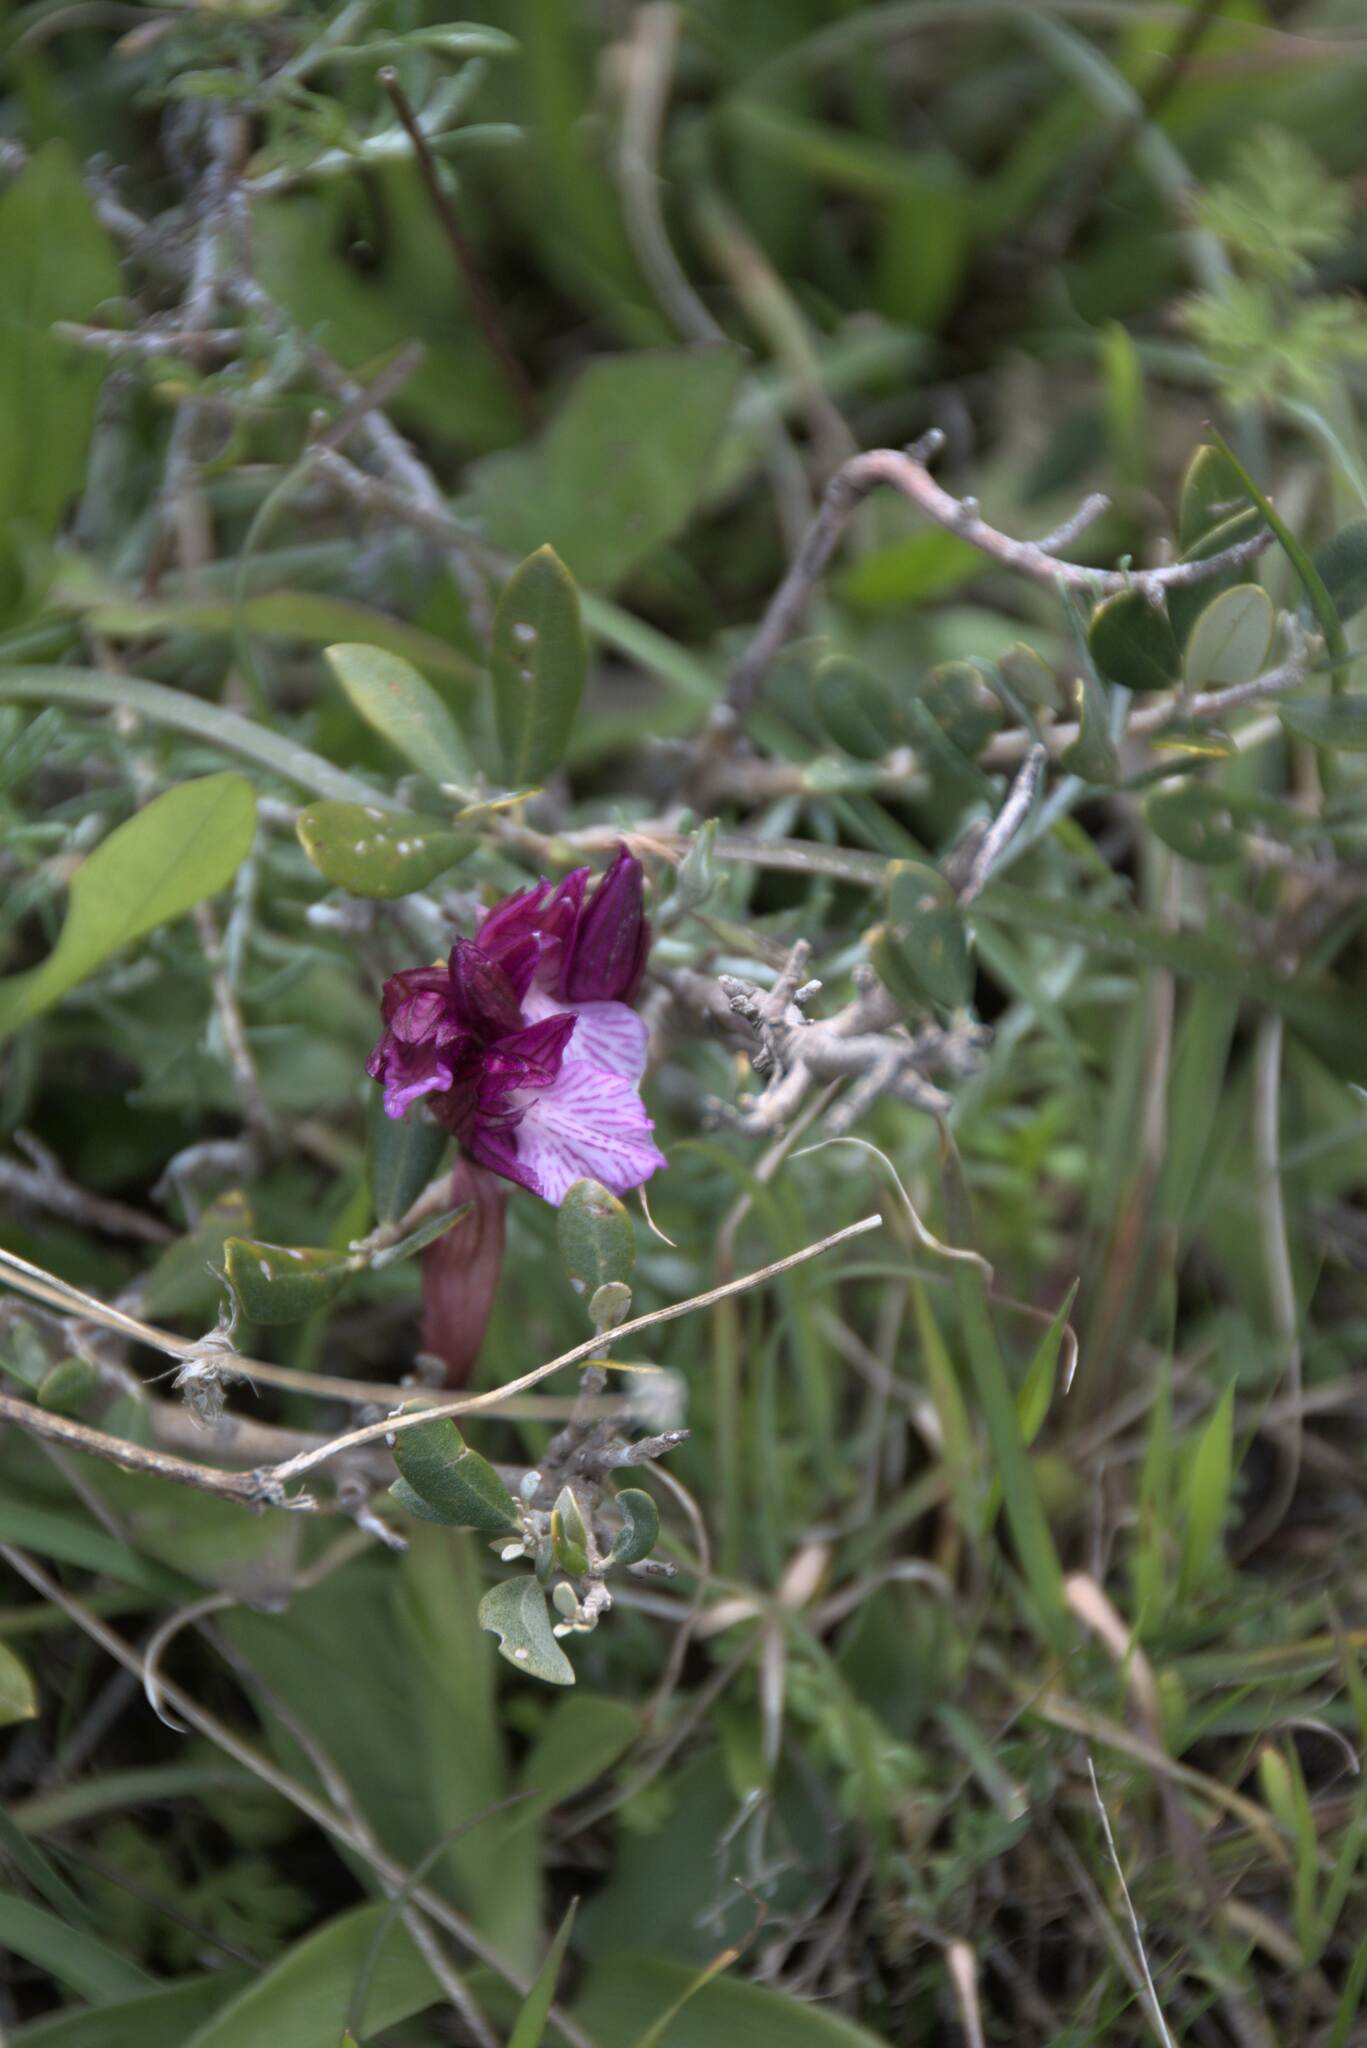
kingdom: Plantae
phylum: Tracheophyta
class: Liliopsida
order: Asparagales
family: Orchidaceae
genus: Anacamptis
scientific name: Anacamptis papilionacea
